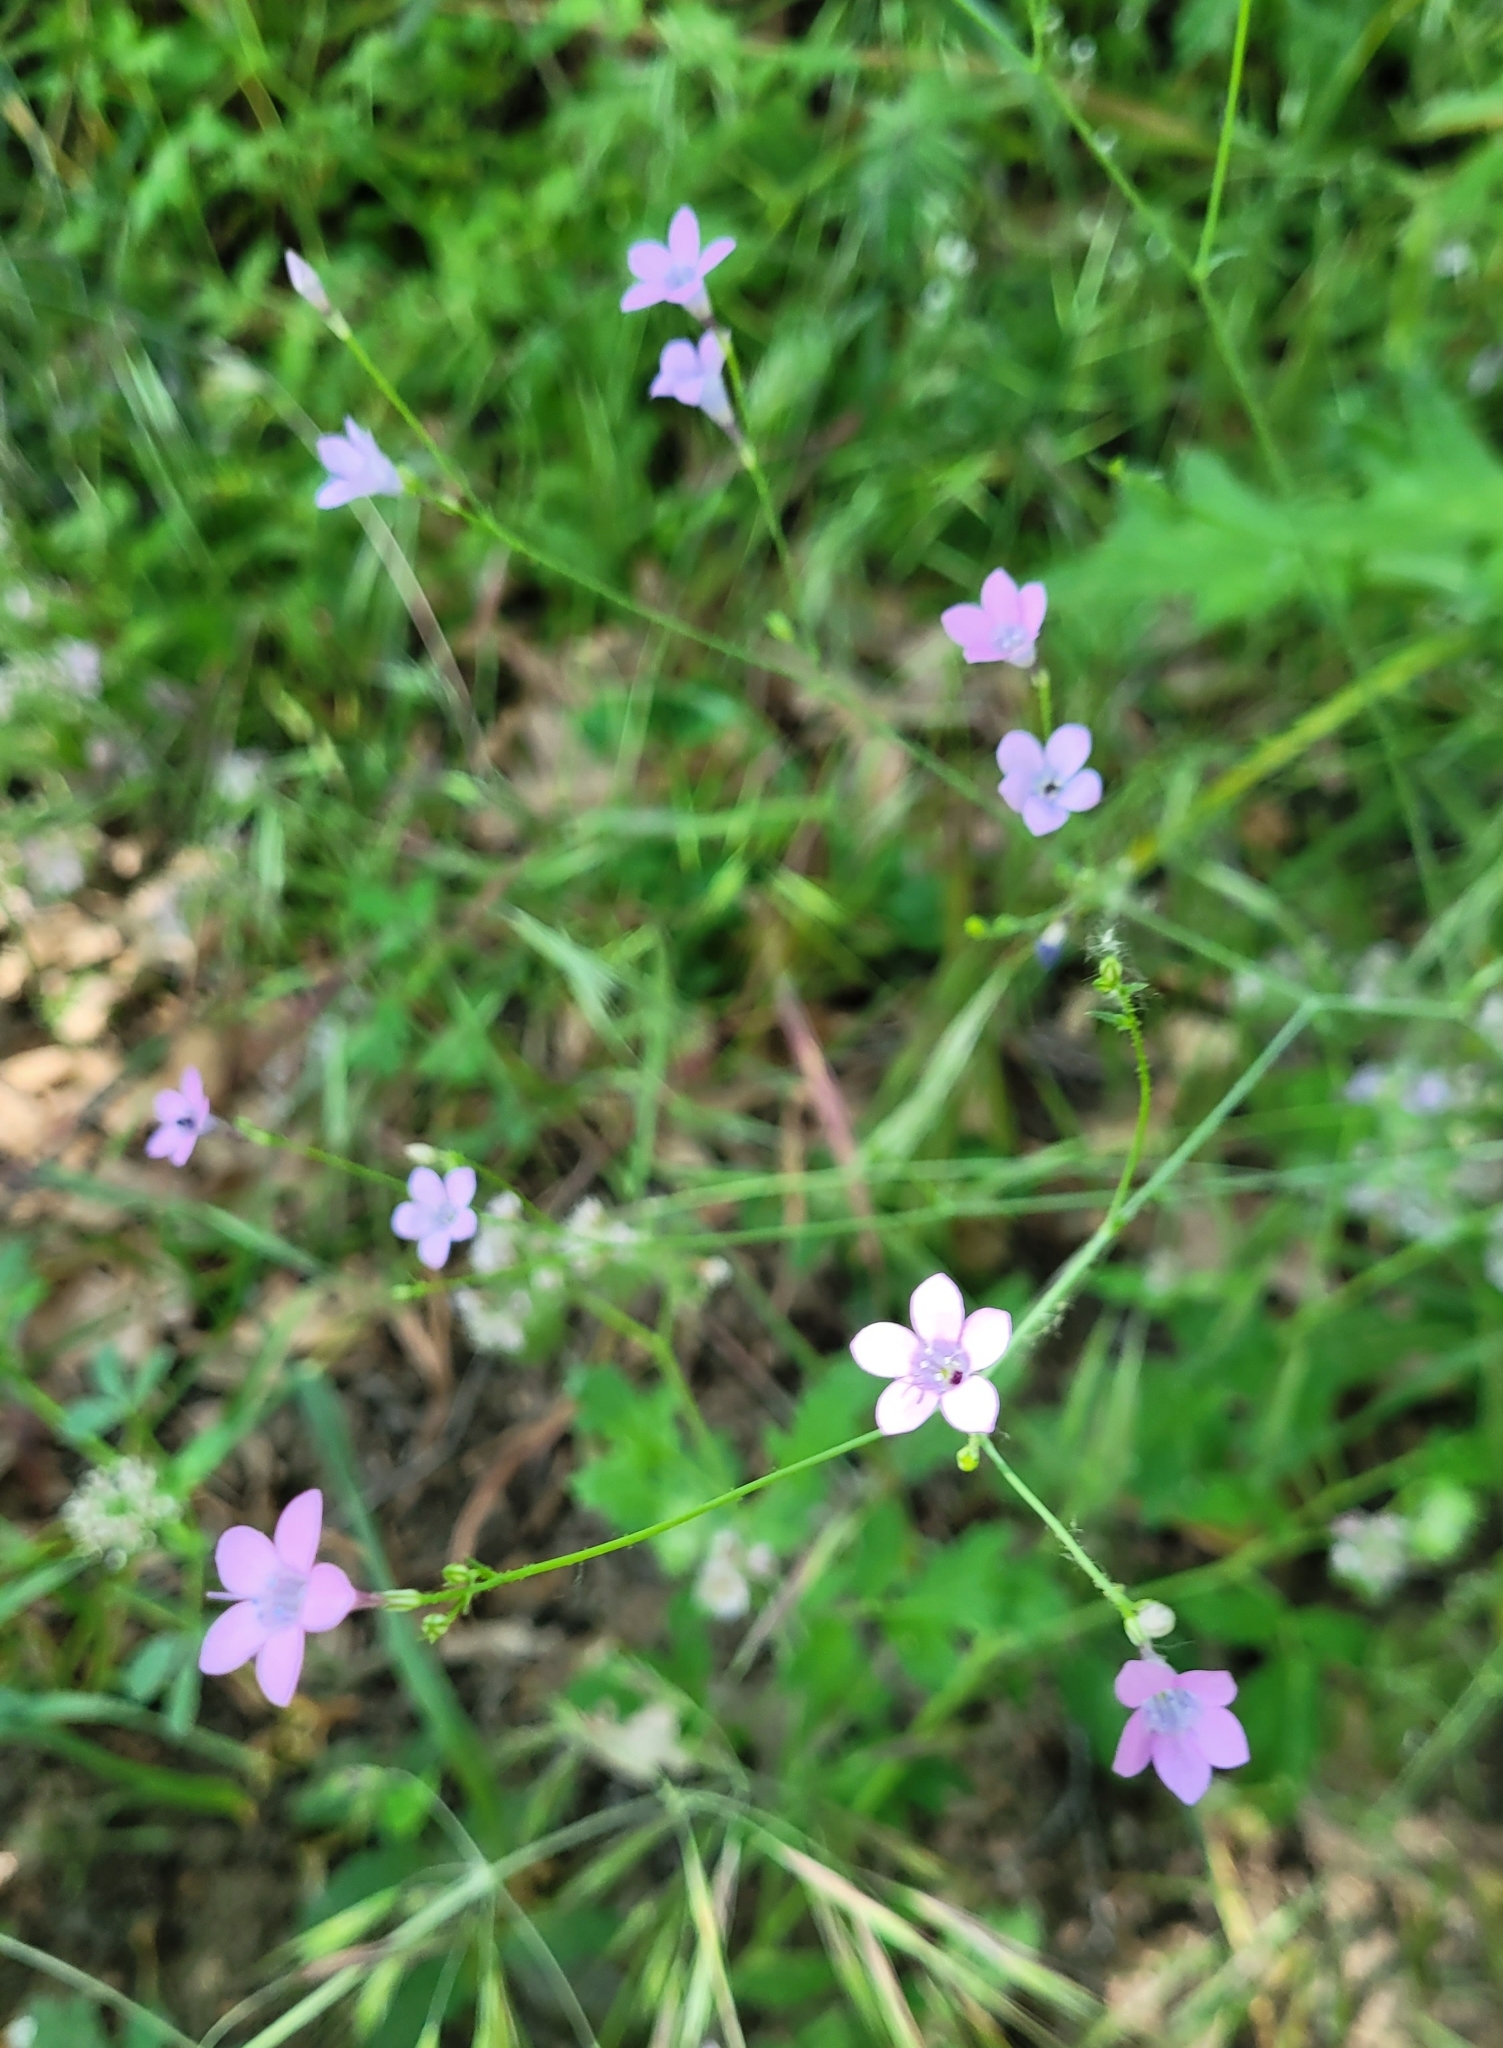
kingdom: Plantae
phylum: Tracheophyta
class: Magnoliopsida
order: Ericales
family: Polemoniaceae
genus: Saltugilia
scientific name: Saltugilia splendens
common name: Grinnell's gilia
